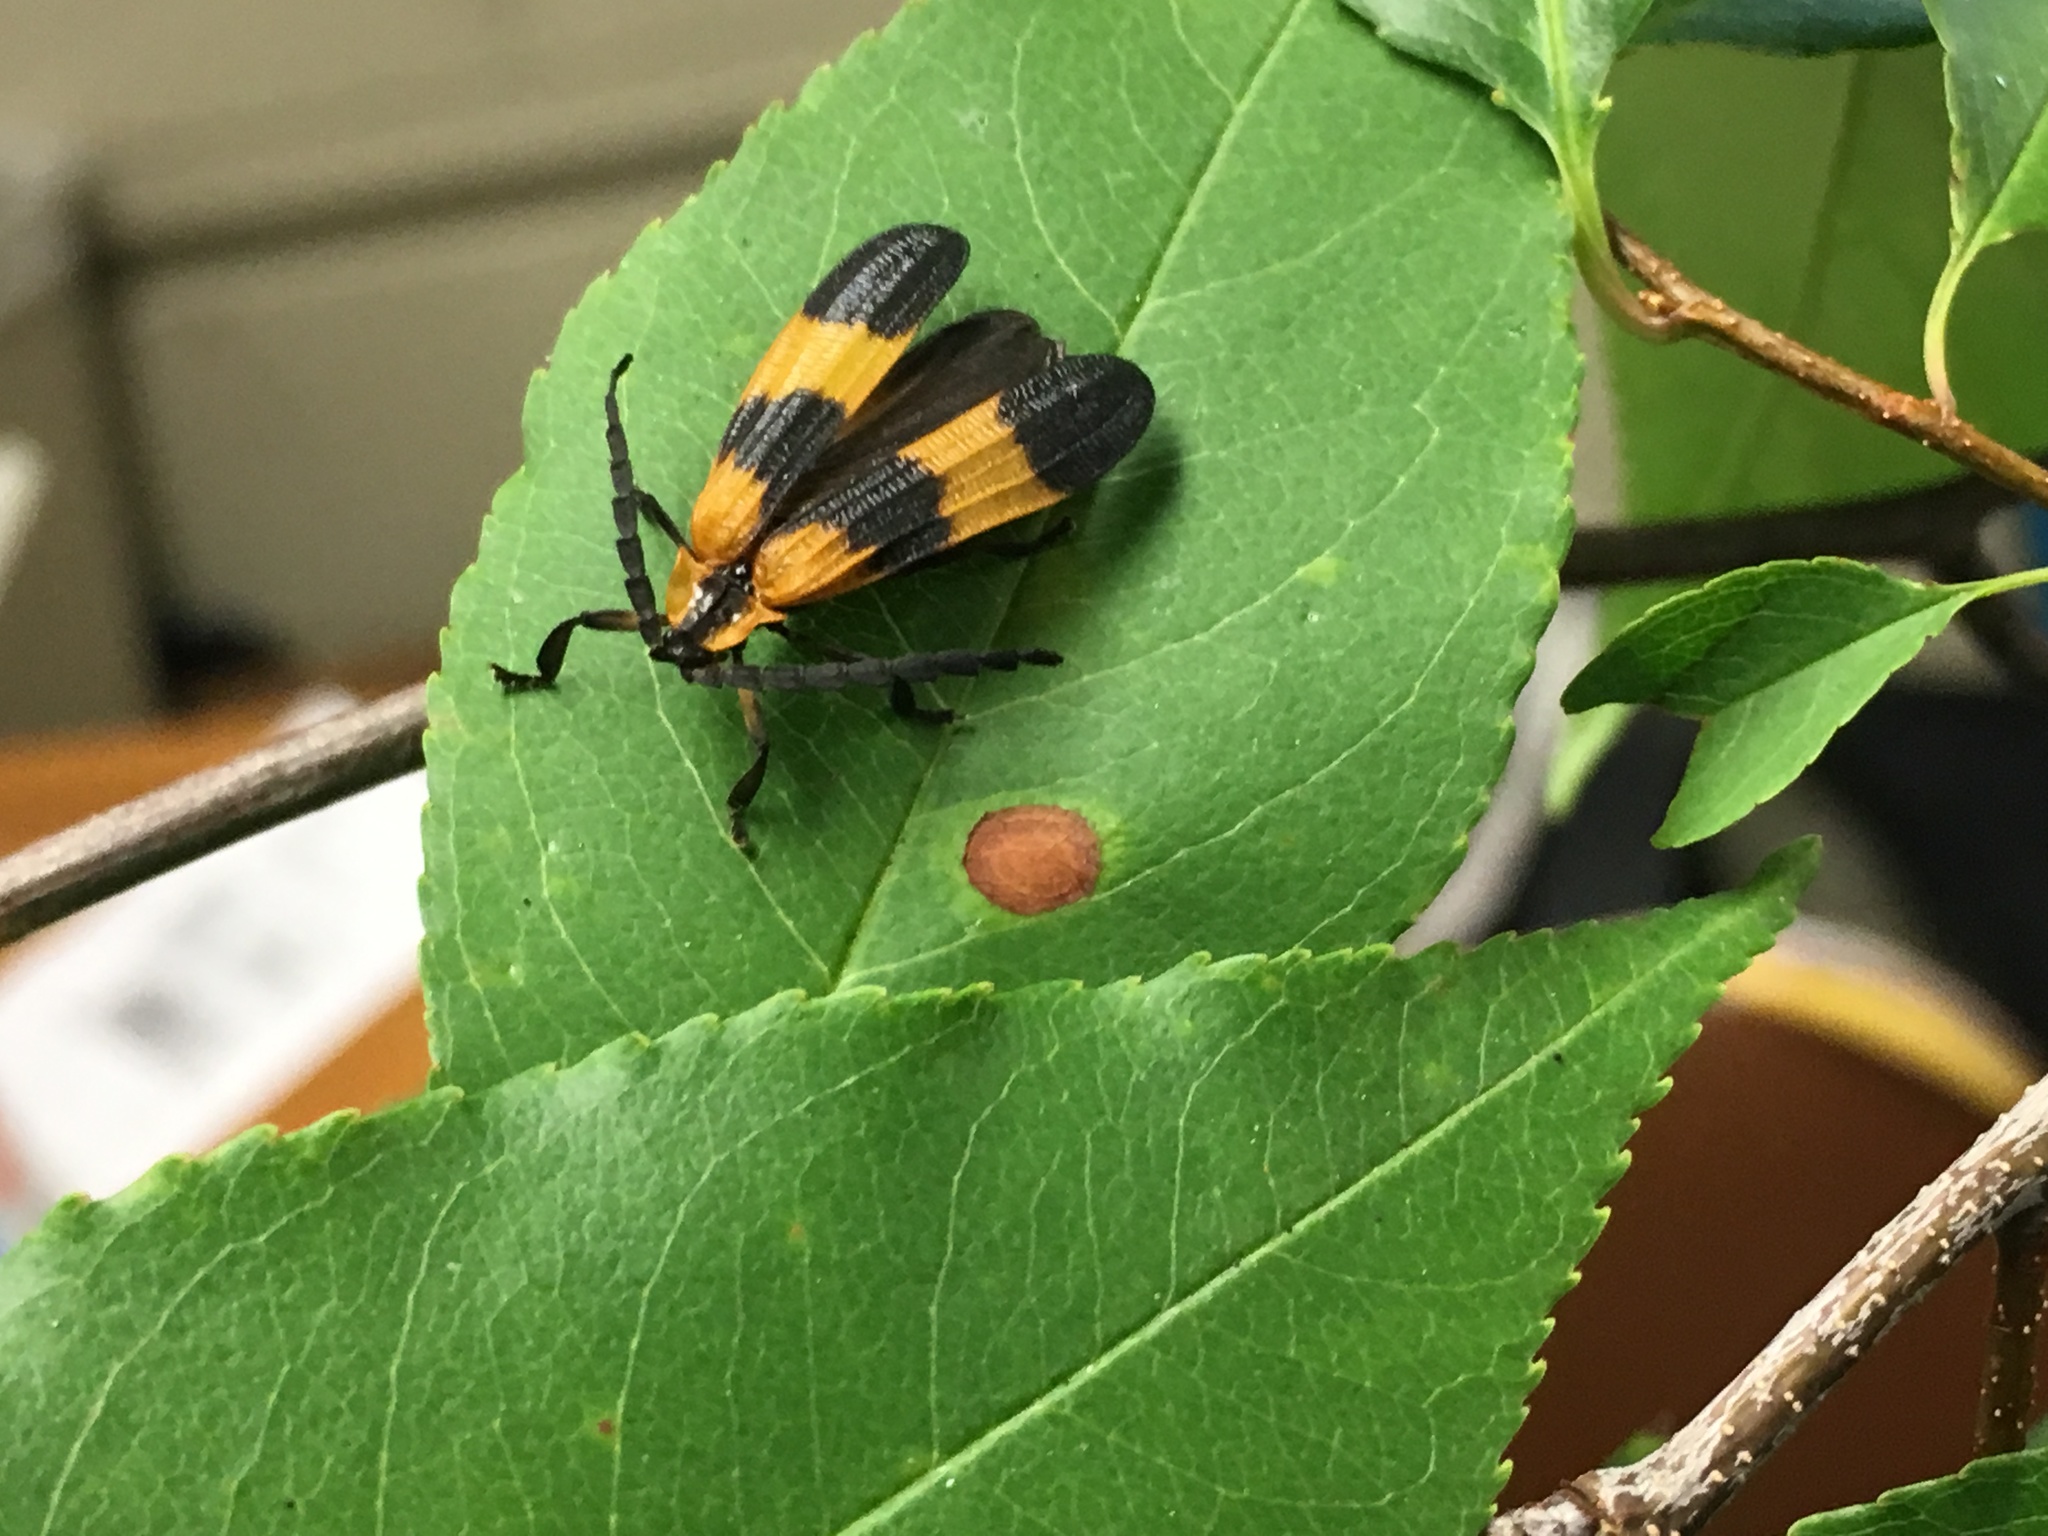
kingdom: Animalia
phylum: Arthropoda
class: Insecta
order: Coleoptera
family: Lycidae
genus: Calopteron
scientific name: Calopteron reticulatum
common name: Banded net-winged beetle
